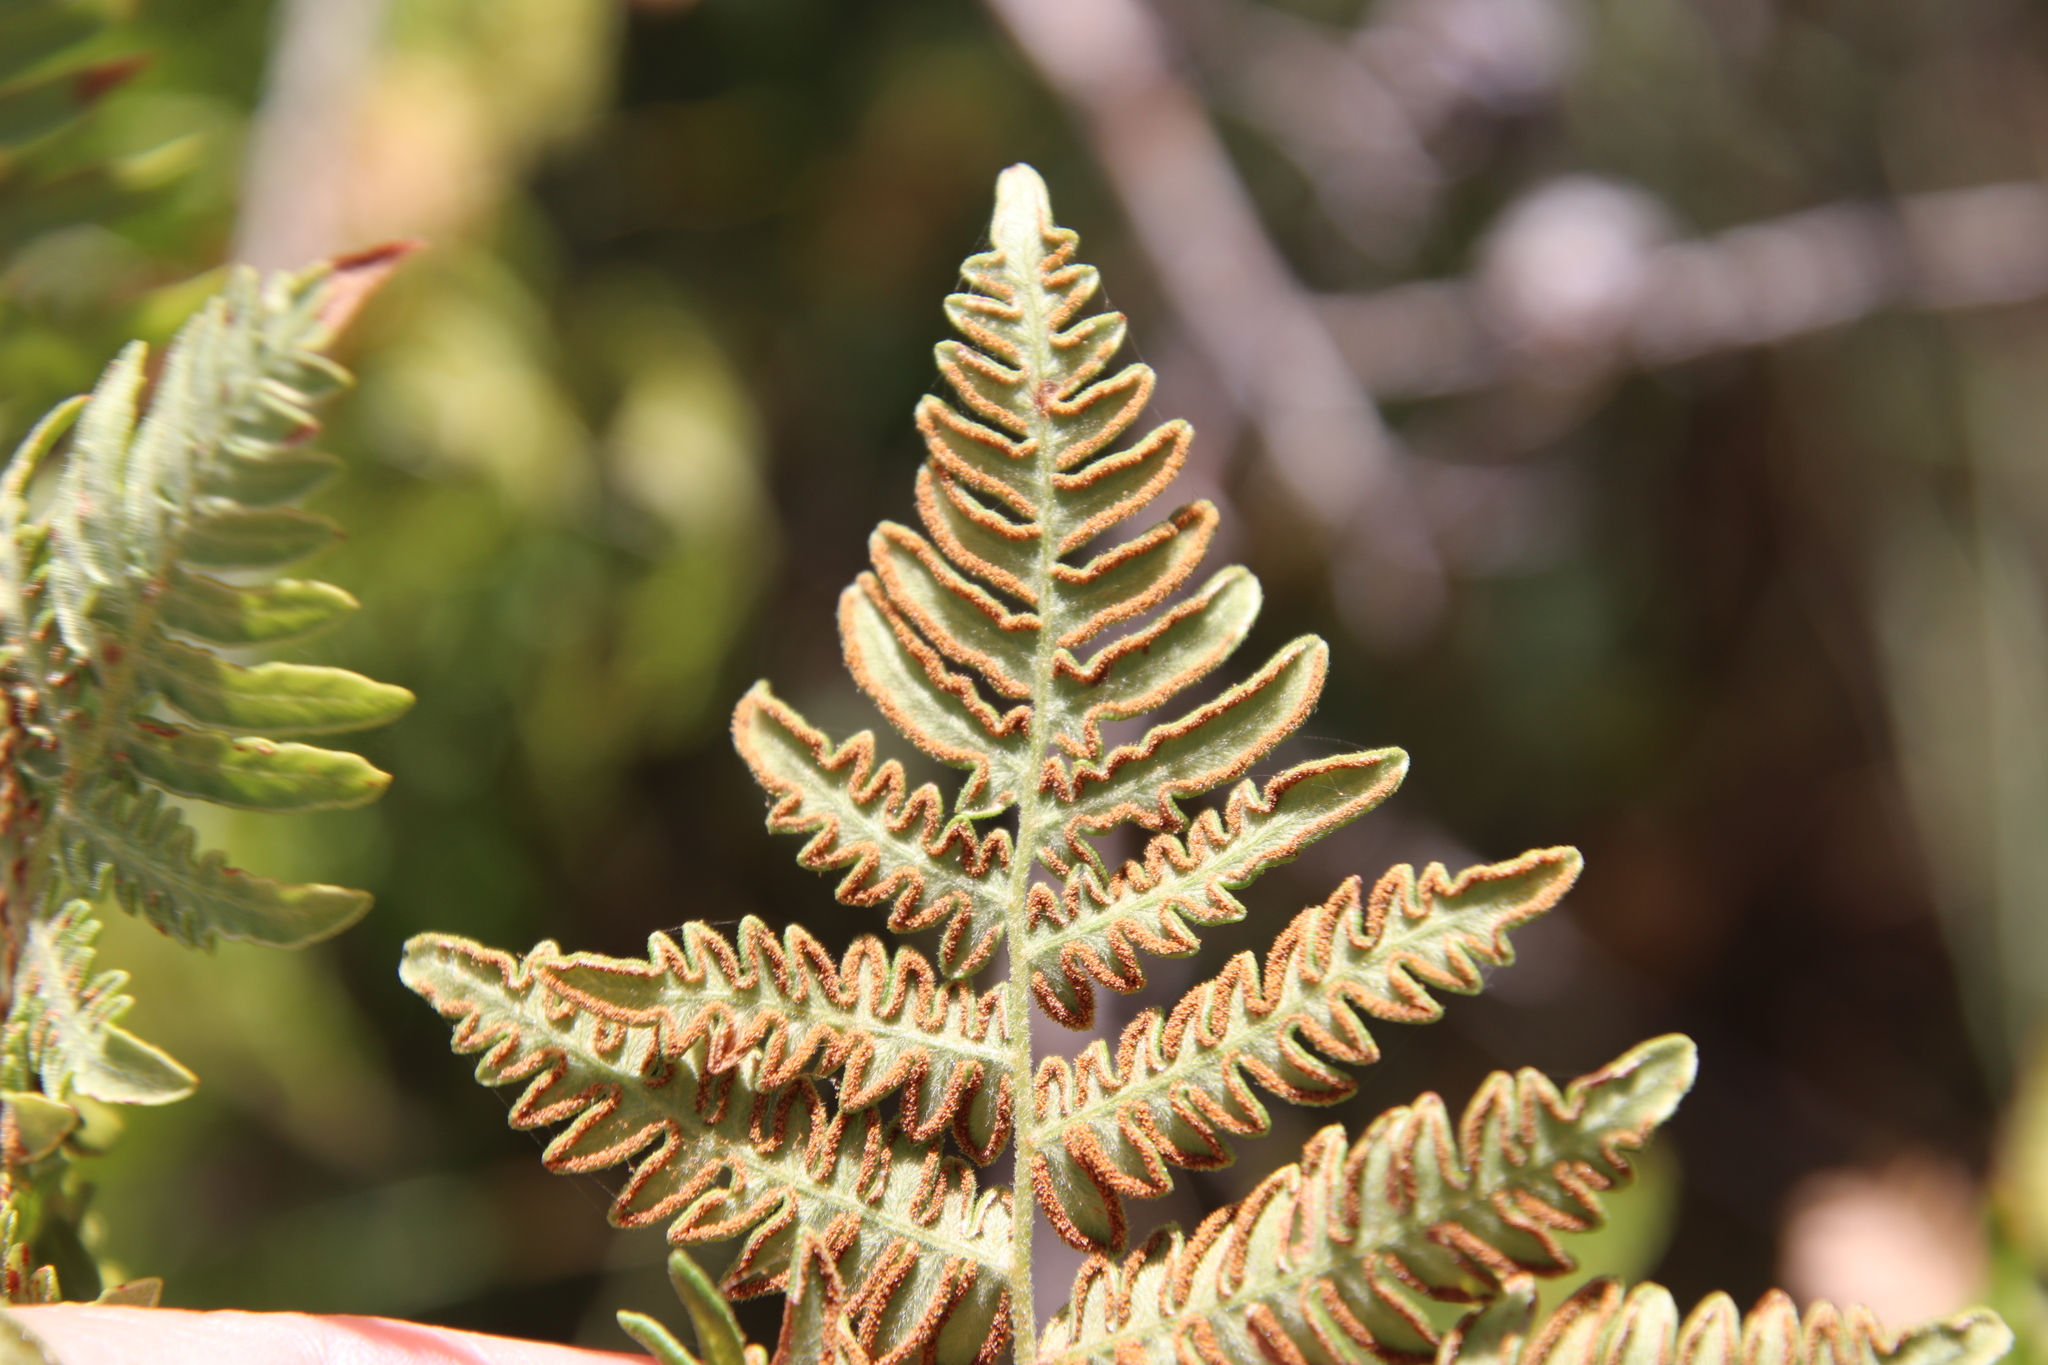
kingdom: Plantae
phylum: Tracheophyta
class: Polypodiopsida
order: Polypodiales
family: Dennstaedtiaceae
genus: Pteridium
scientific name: Pteridium aquilinum
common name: Bracken
